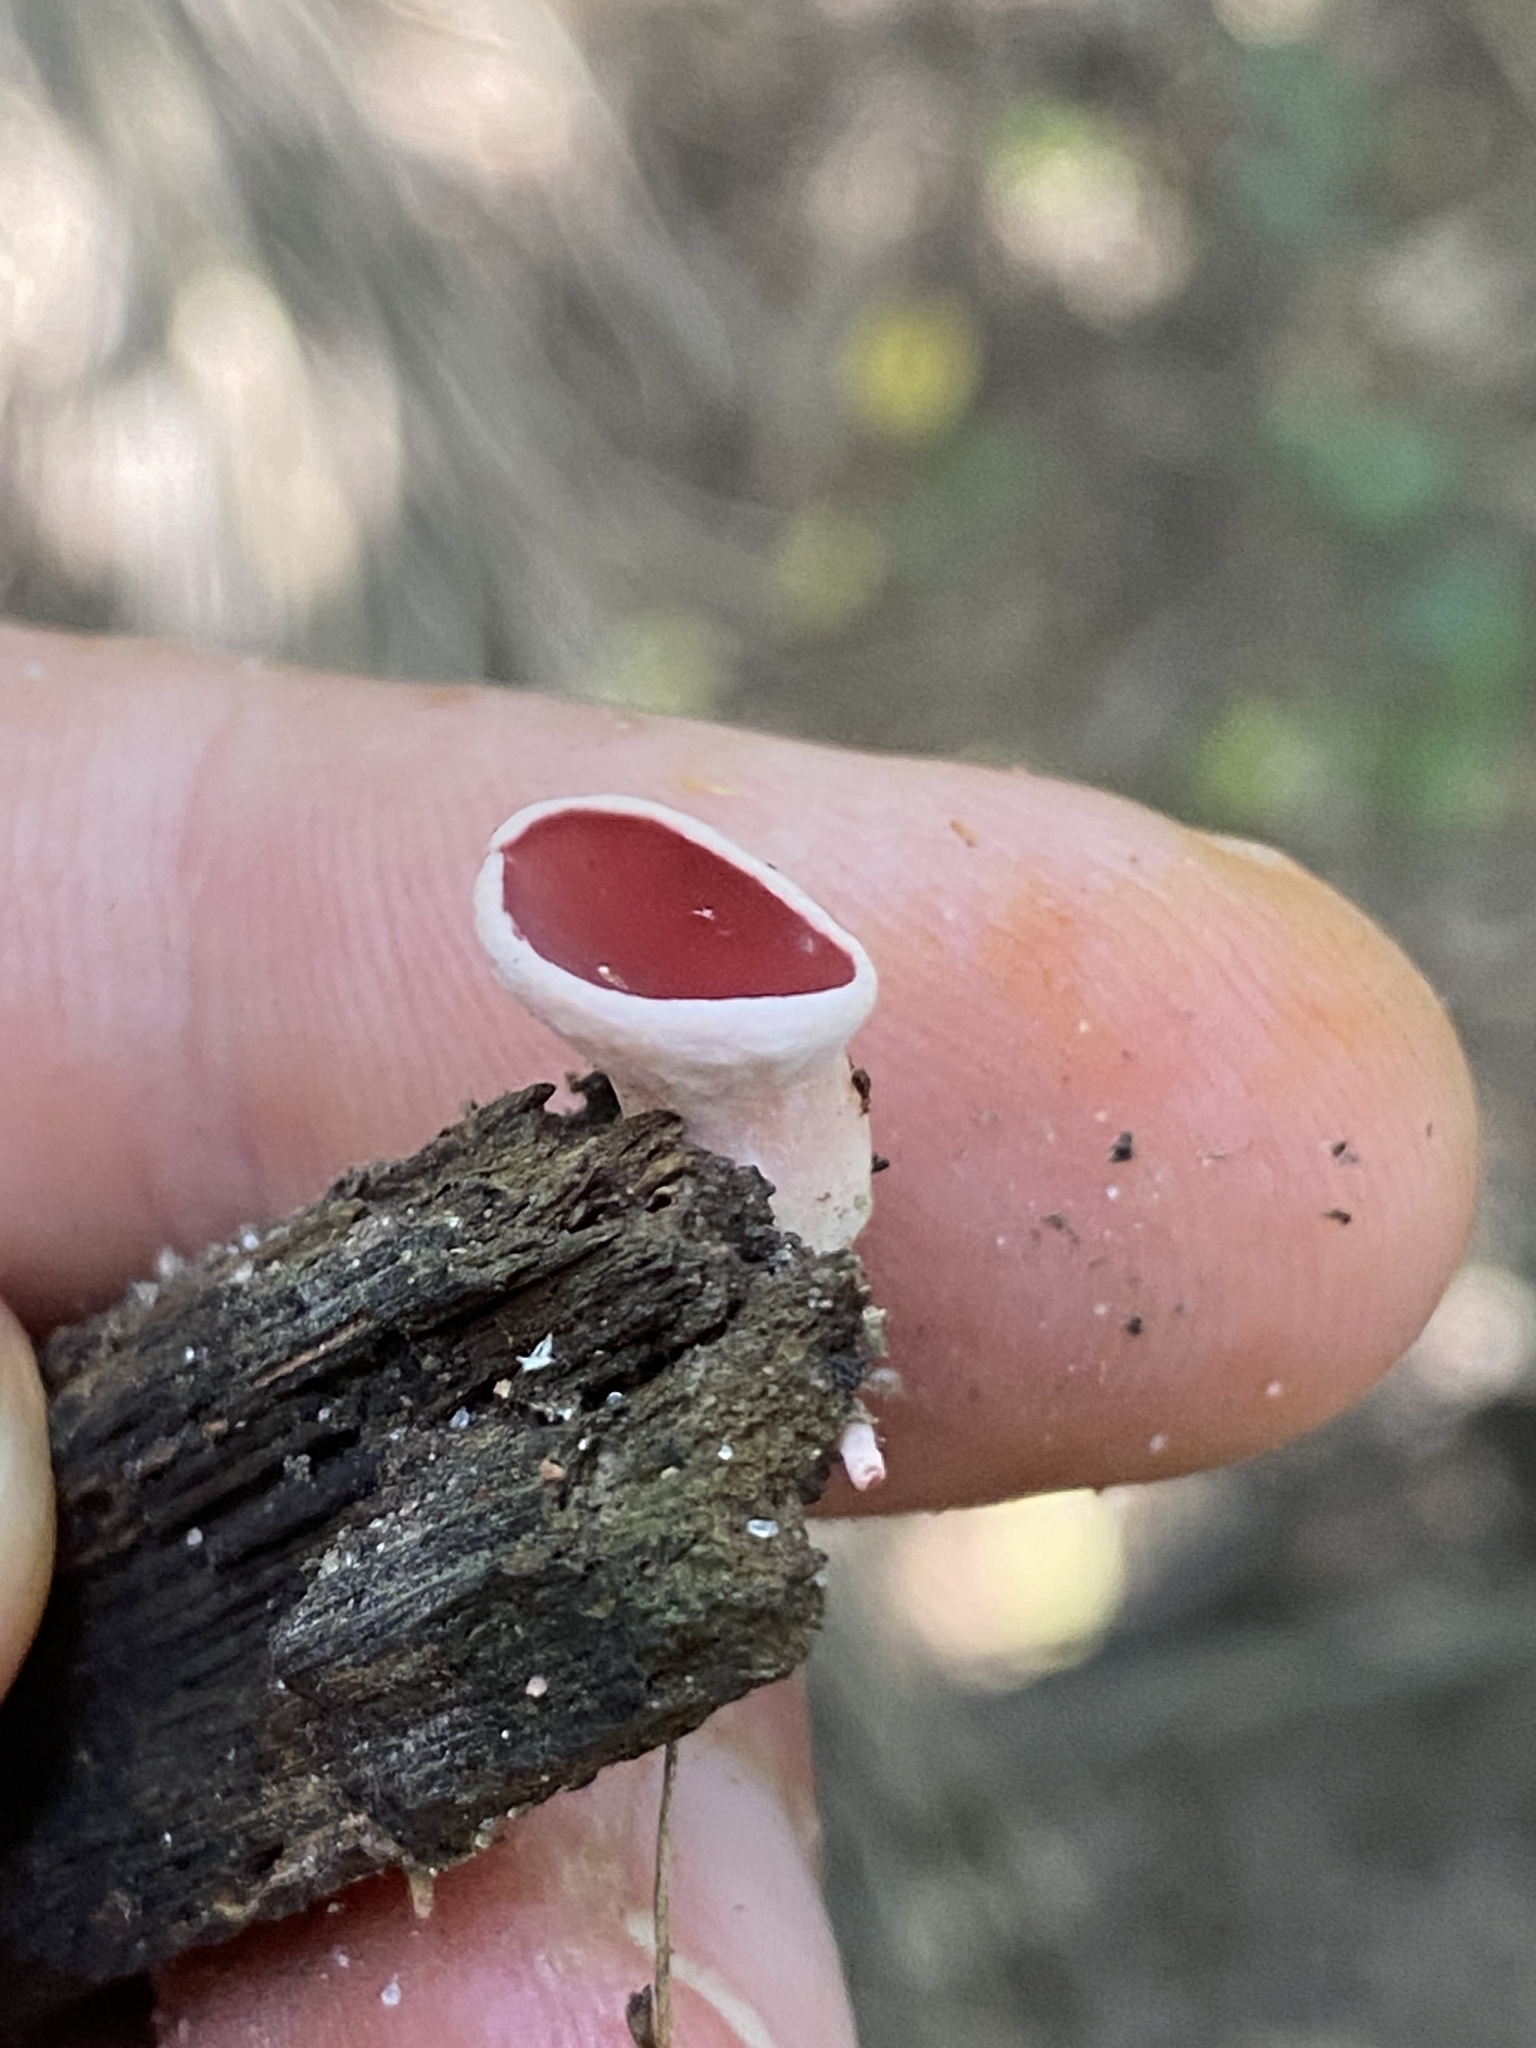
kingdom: Fungi
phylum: Ascomycota
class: Pezizomycetes
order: Pezizales
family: Sarcoscyphaceae
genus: Phillipsia
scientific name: Phillipsia domingensis
